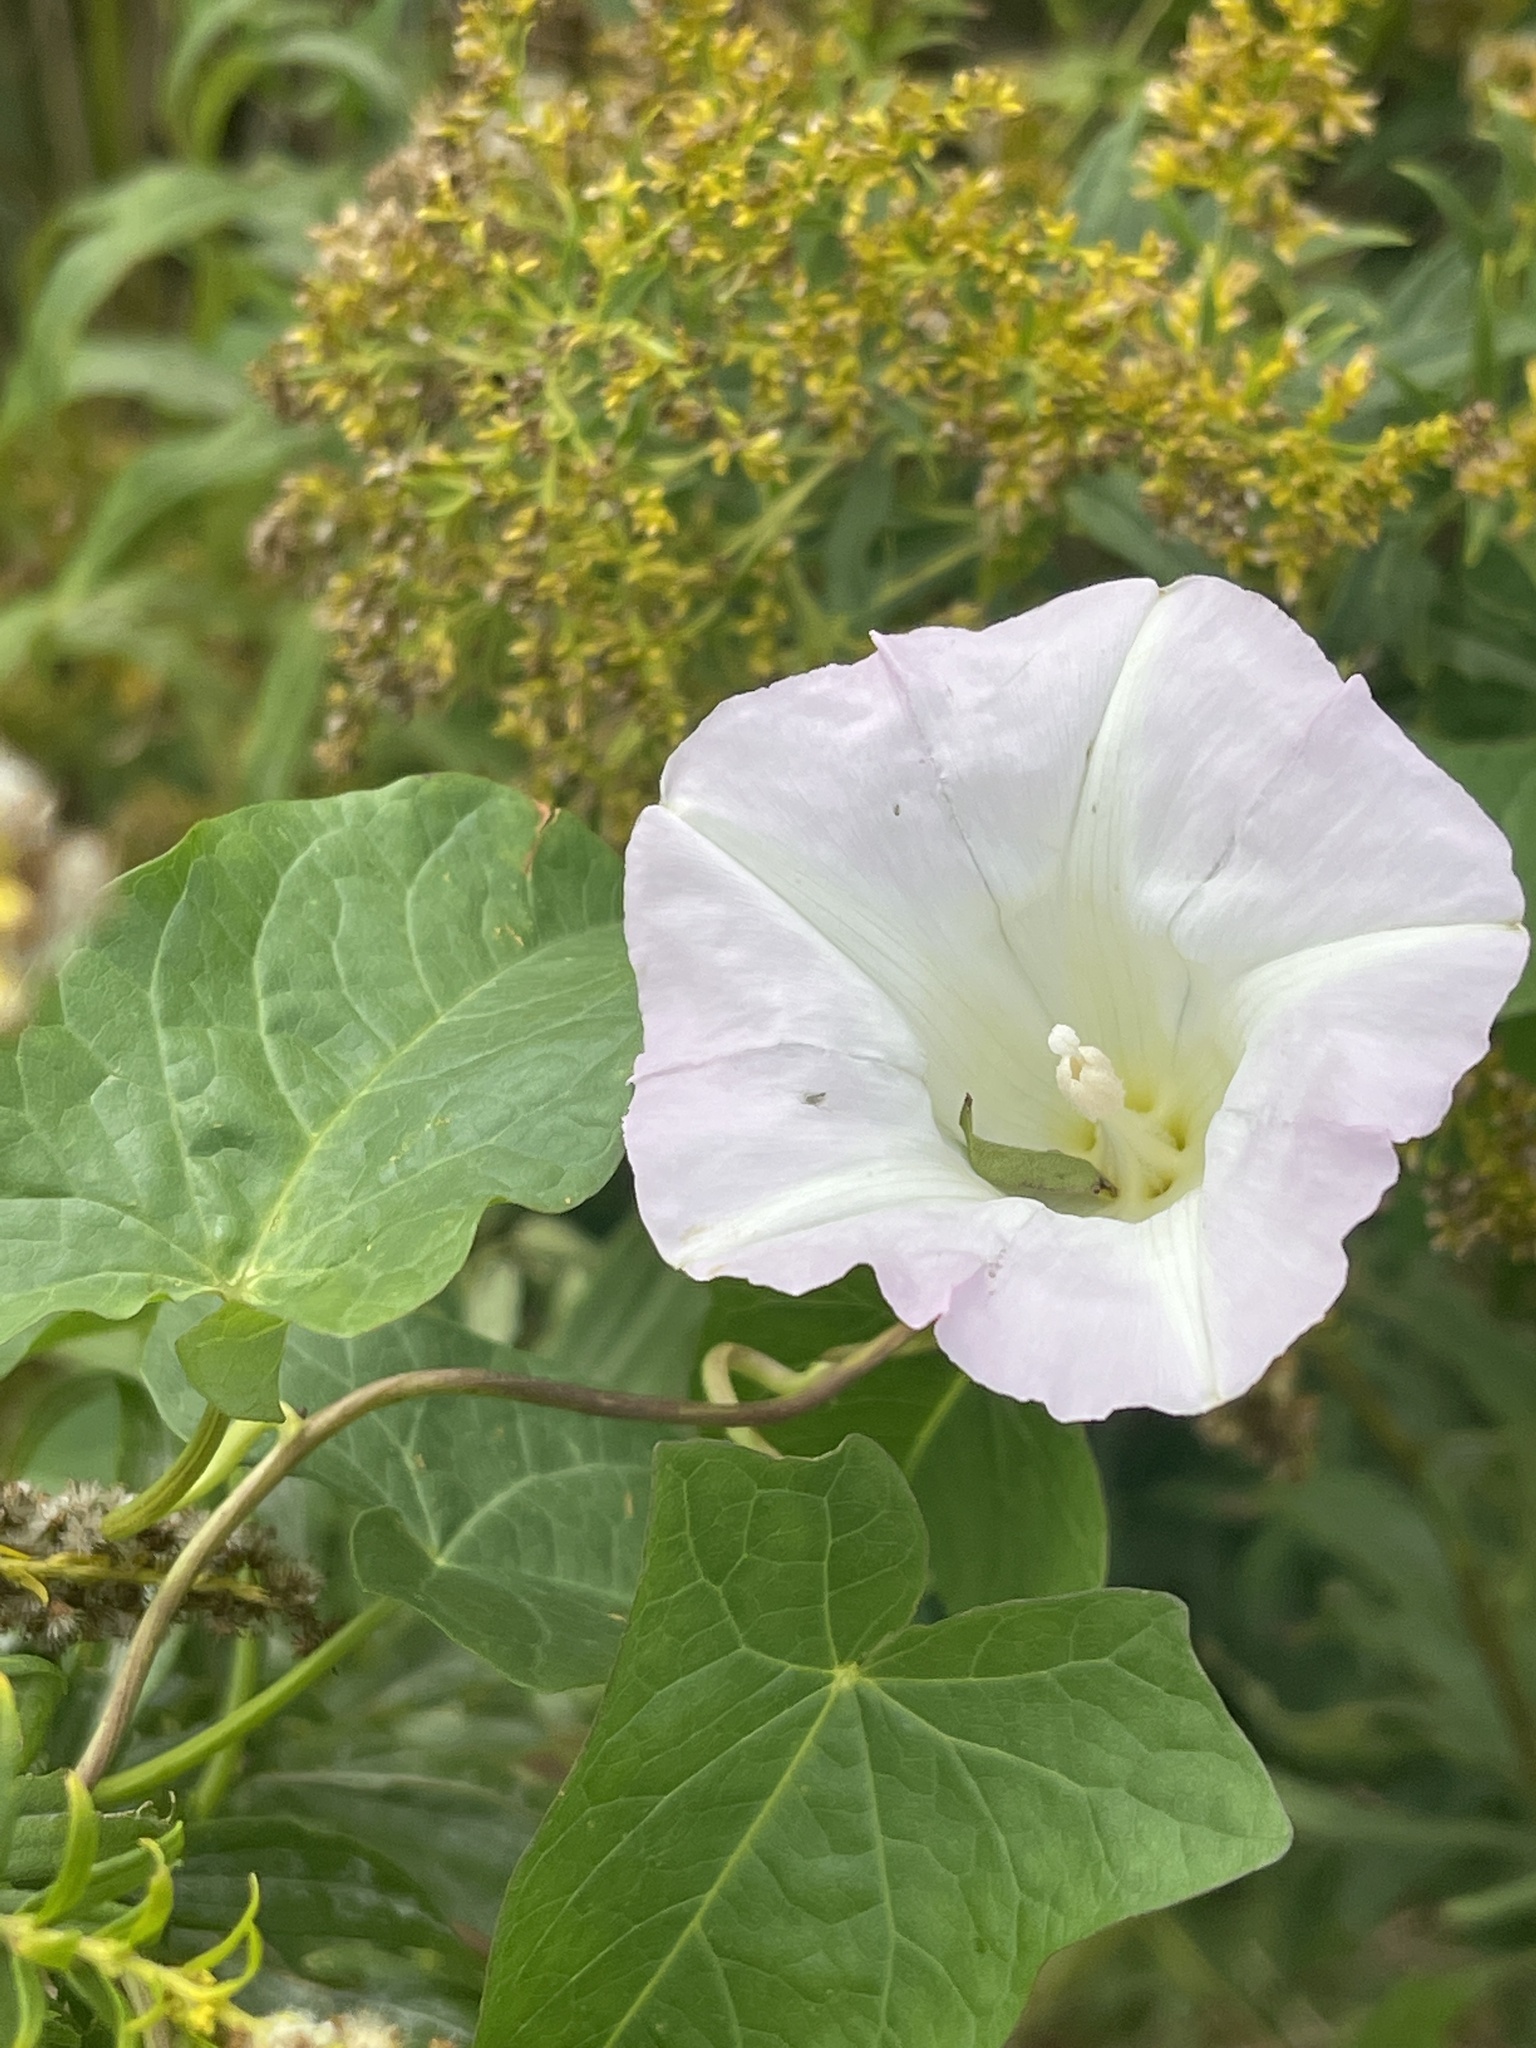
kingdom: Plantae
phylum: Tracheophyta
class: Magnoliopsida
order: Solanales
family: Convolvulaceae
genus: Calystegia
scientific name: Calystegia sepium
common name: Hedge bindweed
